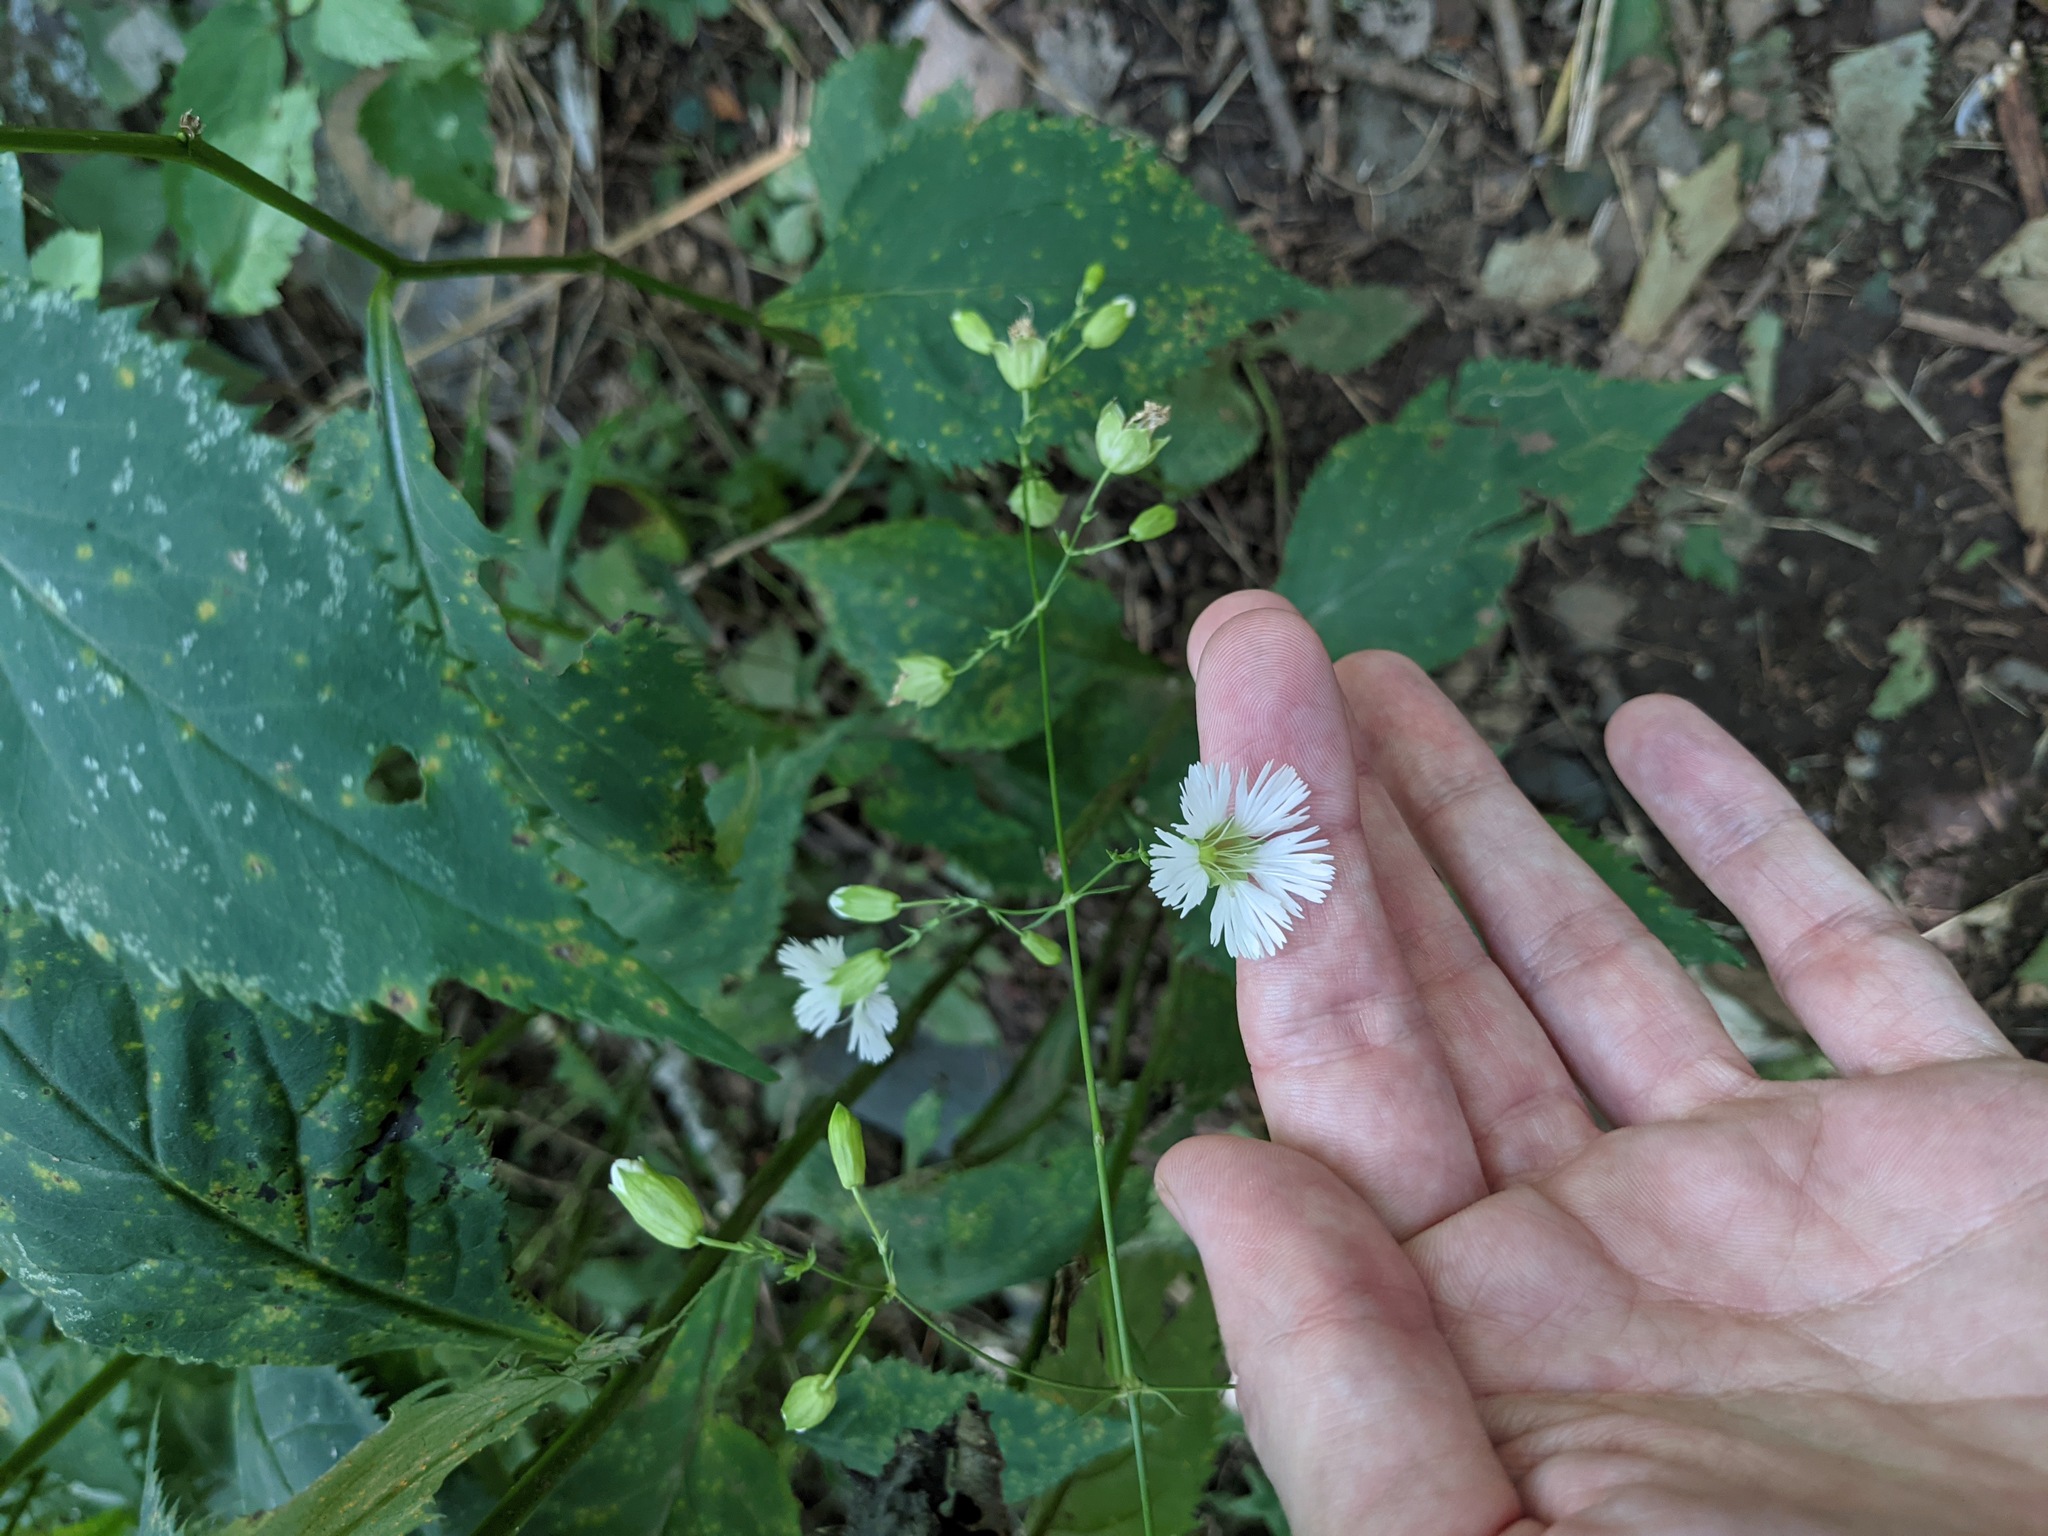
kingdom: Plantae
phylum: Tracheophyta
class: Magnoliopsida
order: Caryophyllales
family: Caryophyllaceae
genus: Silene
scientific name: Silene stellata
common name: Starry campion
